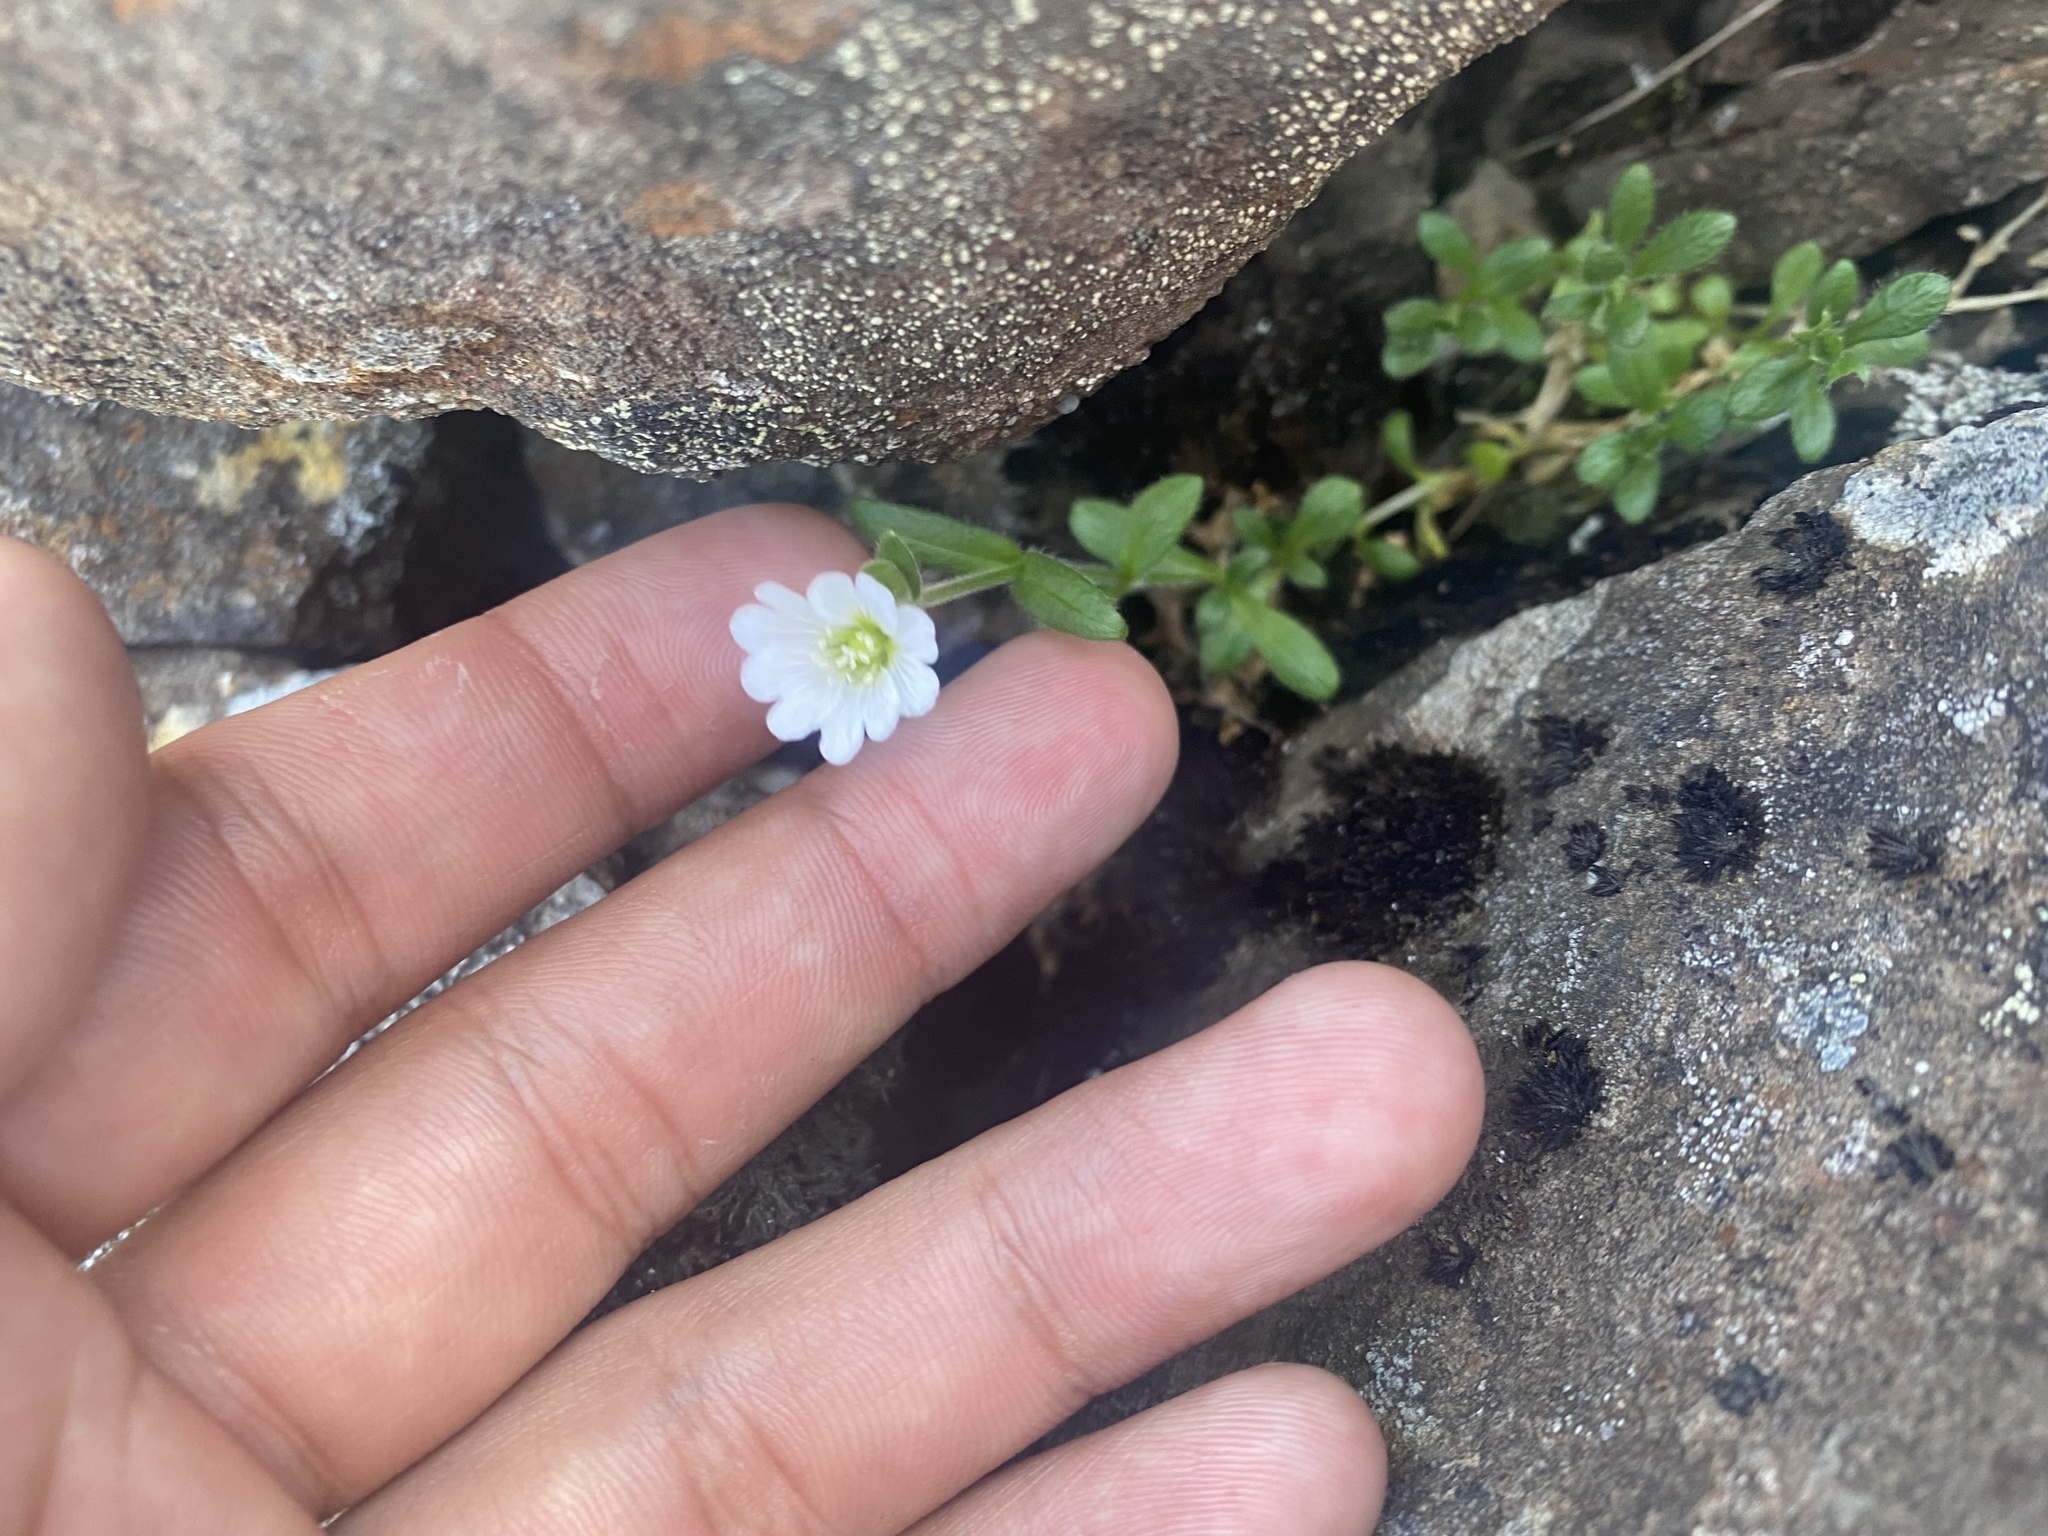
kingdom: Plantae
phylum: Tracheophyta
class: Magnoliopsida
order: Caryophyllales
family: Caryophyllaceae
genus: Cerastium
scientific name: Cerastium arvense
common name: Field mouse-ear
